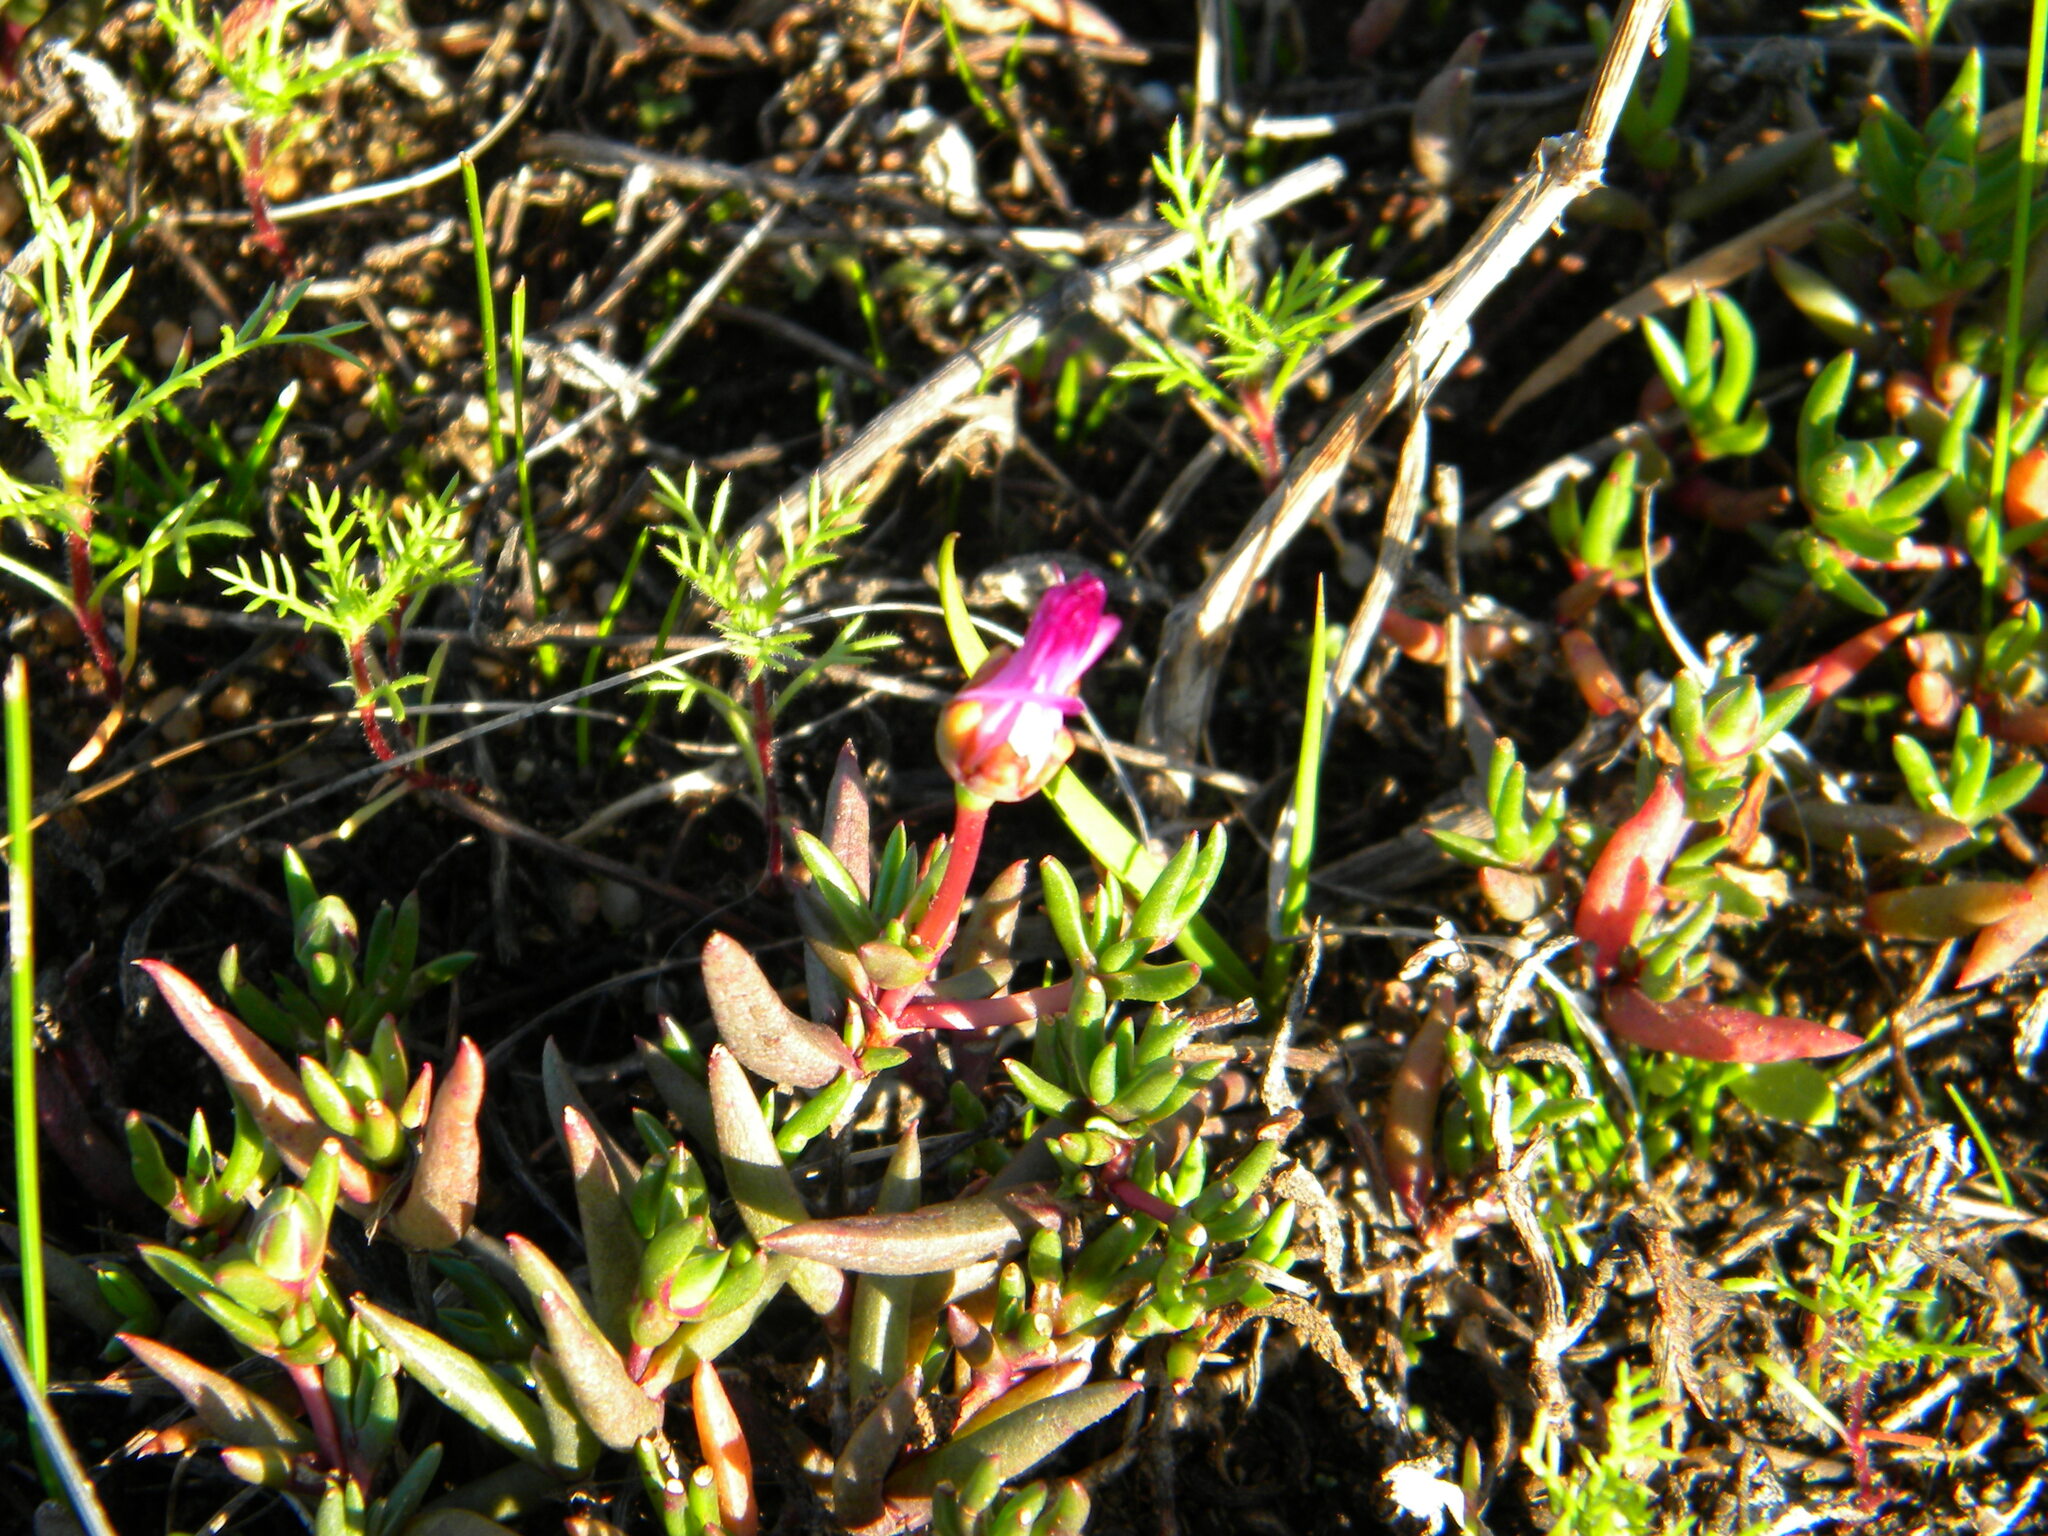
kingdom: Plantae
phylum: Tracheophyta
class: Magnoliopsida
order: Caryophyllales
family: Aizoaceae
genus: Lampranthus
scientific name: Lampranthus filicaulis
